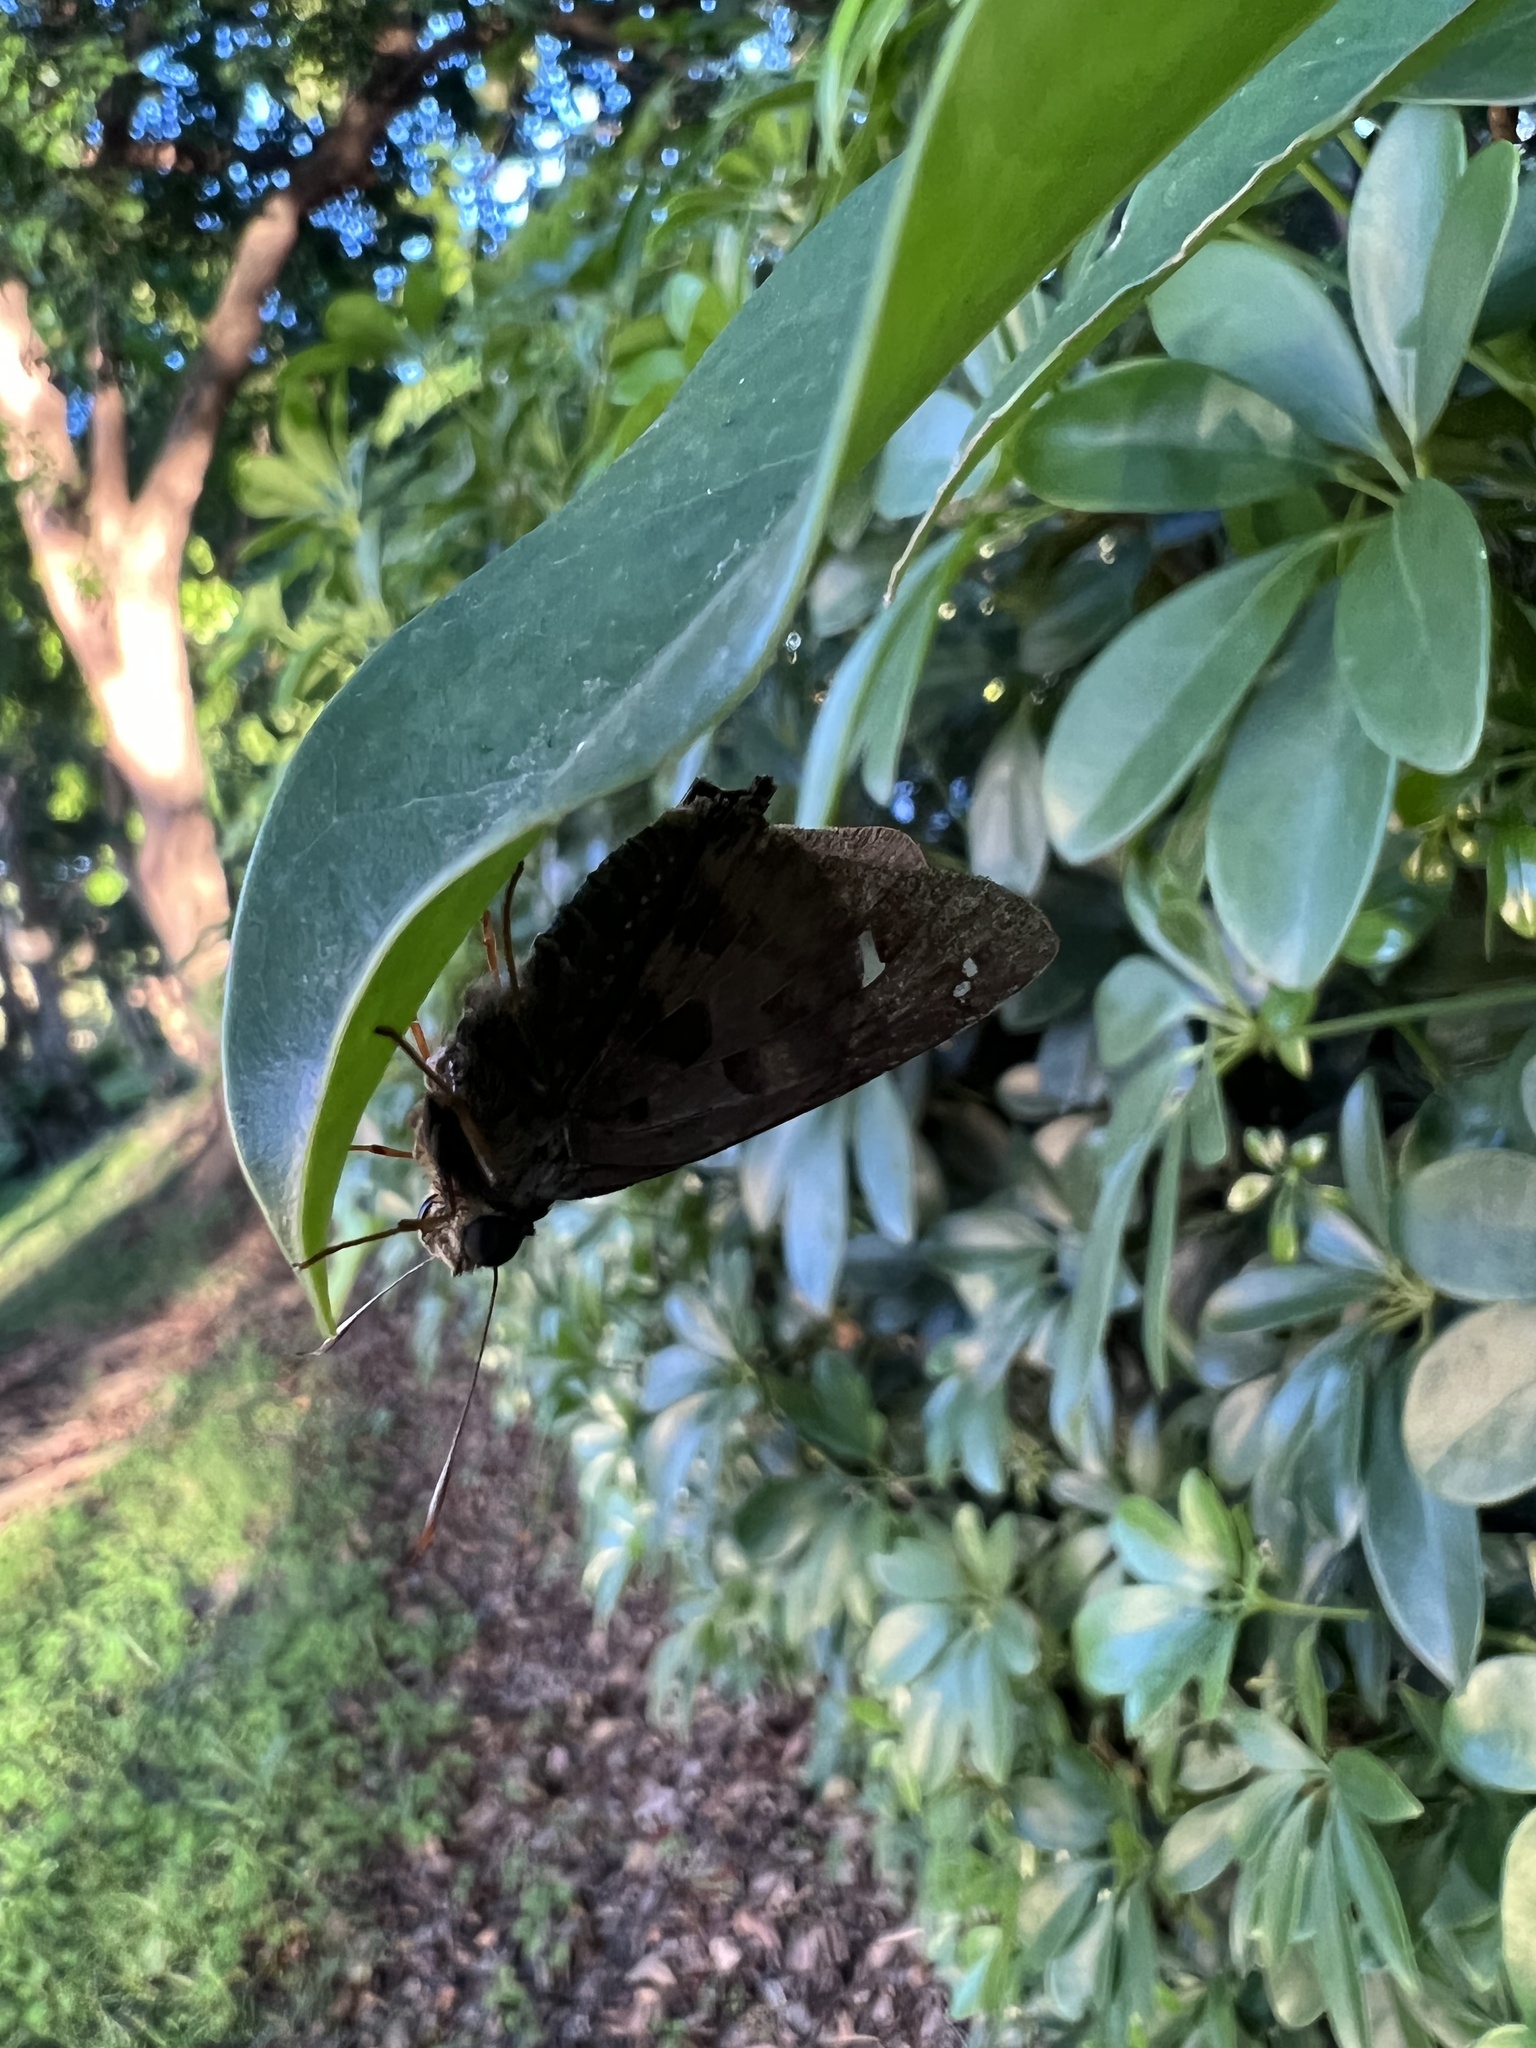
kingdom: Animalia
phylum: Arthropoda
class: Insecta
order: Lepidoptera
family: Hesperiidae
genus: Polygonus
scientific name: Polygonus leo
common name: Hammoch skipper
